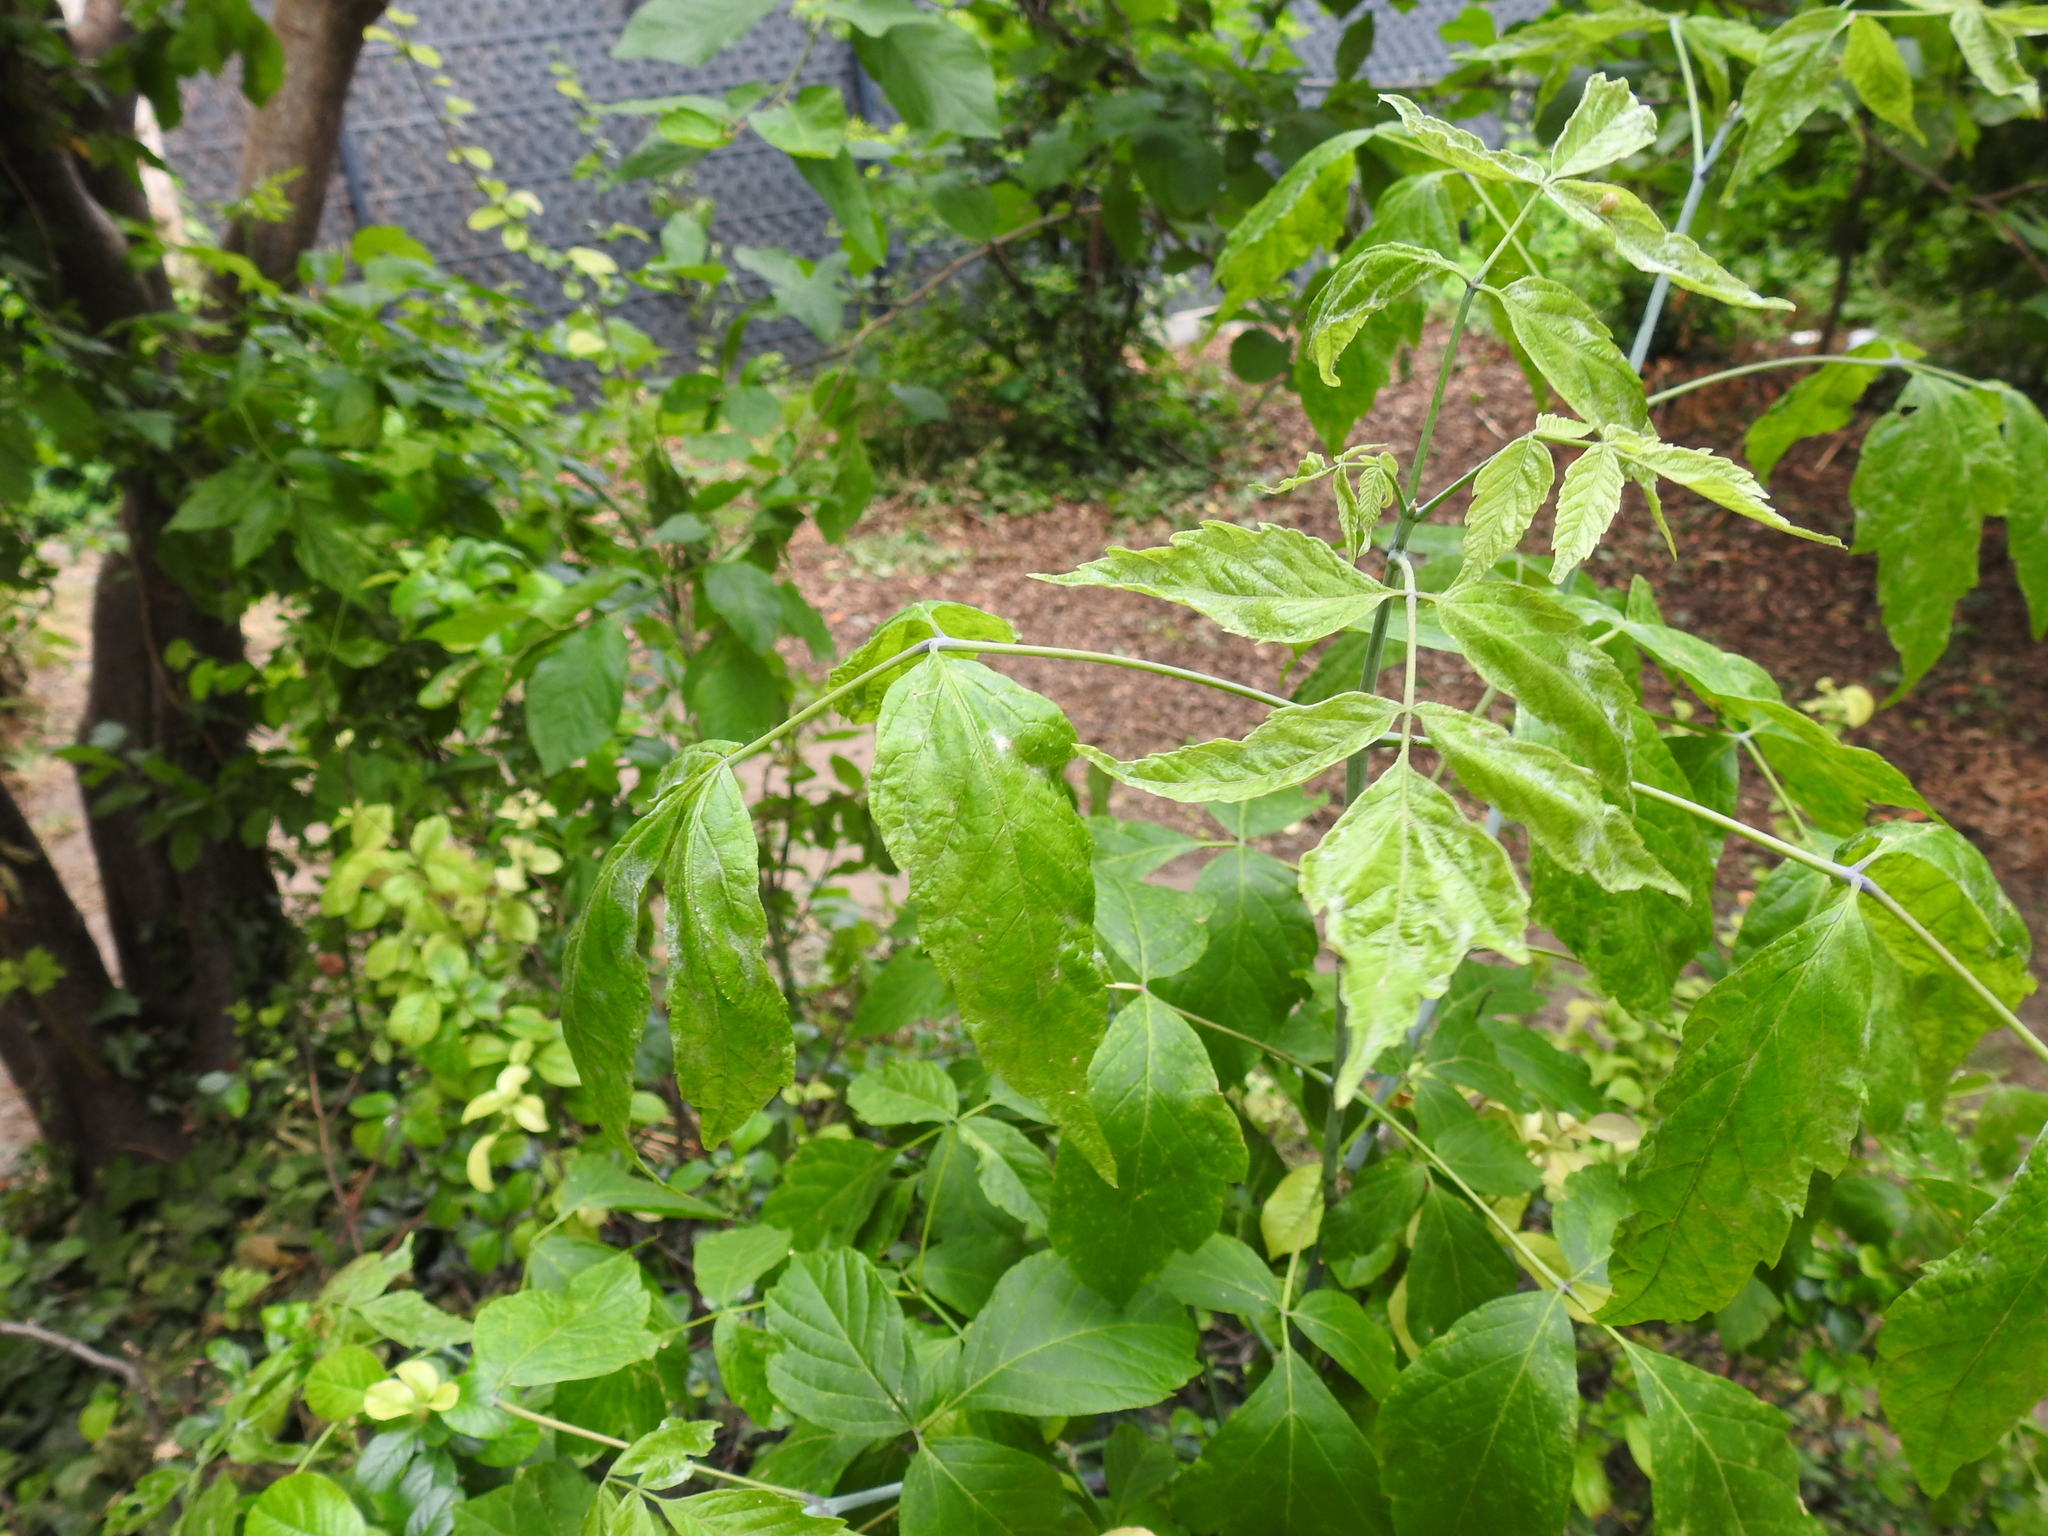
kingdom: Plantae
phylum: Tracheophyta
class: Magnoliopsida
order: Sapindales
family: Sapindaceae
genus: Acer
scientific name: Acer negundo
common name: Ashleaf maple
